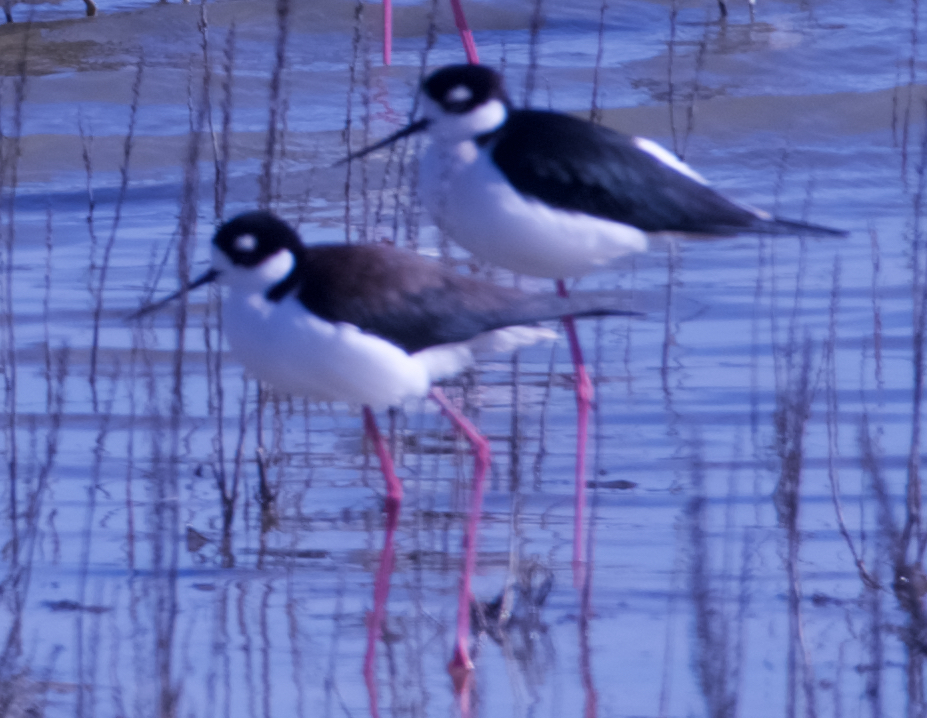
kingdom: Animalia
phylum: Chordata
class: Aves
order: Charadriiformes
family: Recurvirostridae
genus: Himantopus
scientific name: Himantopus mexicanus
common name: Black-necked stilt
